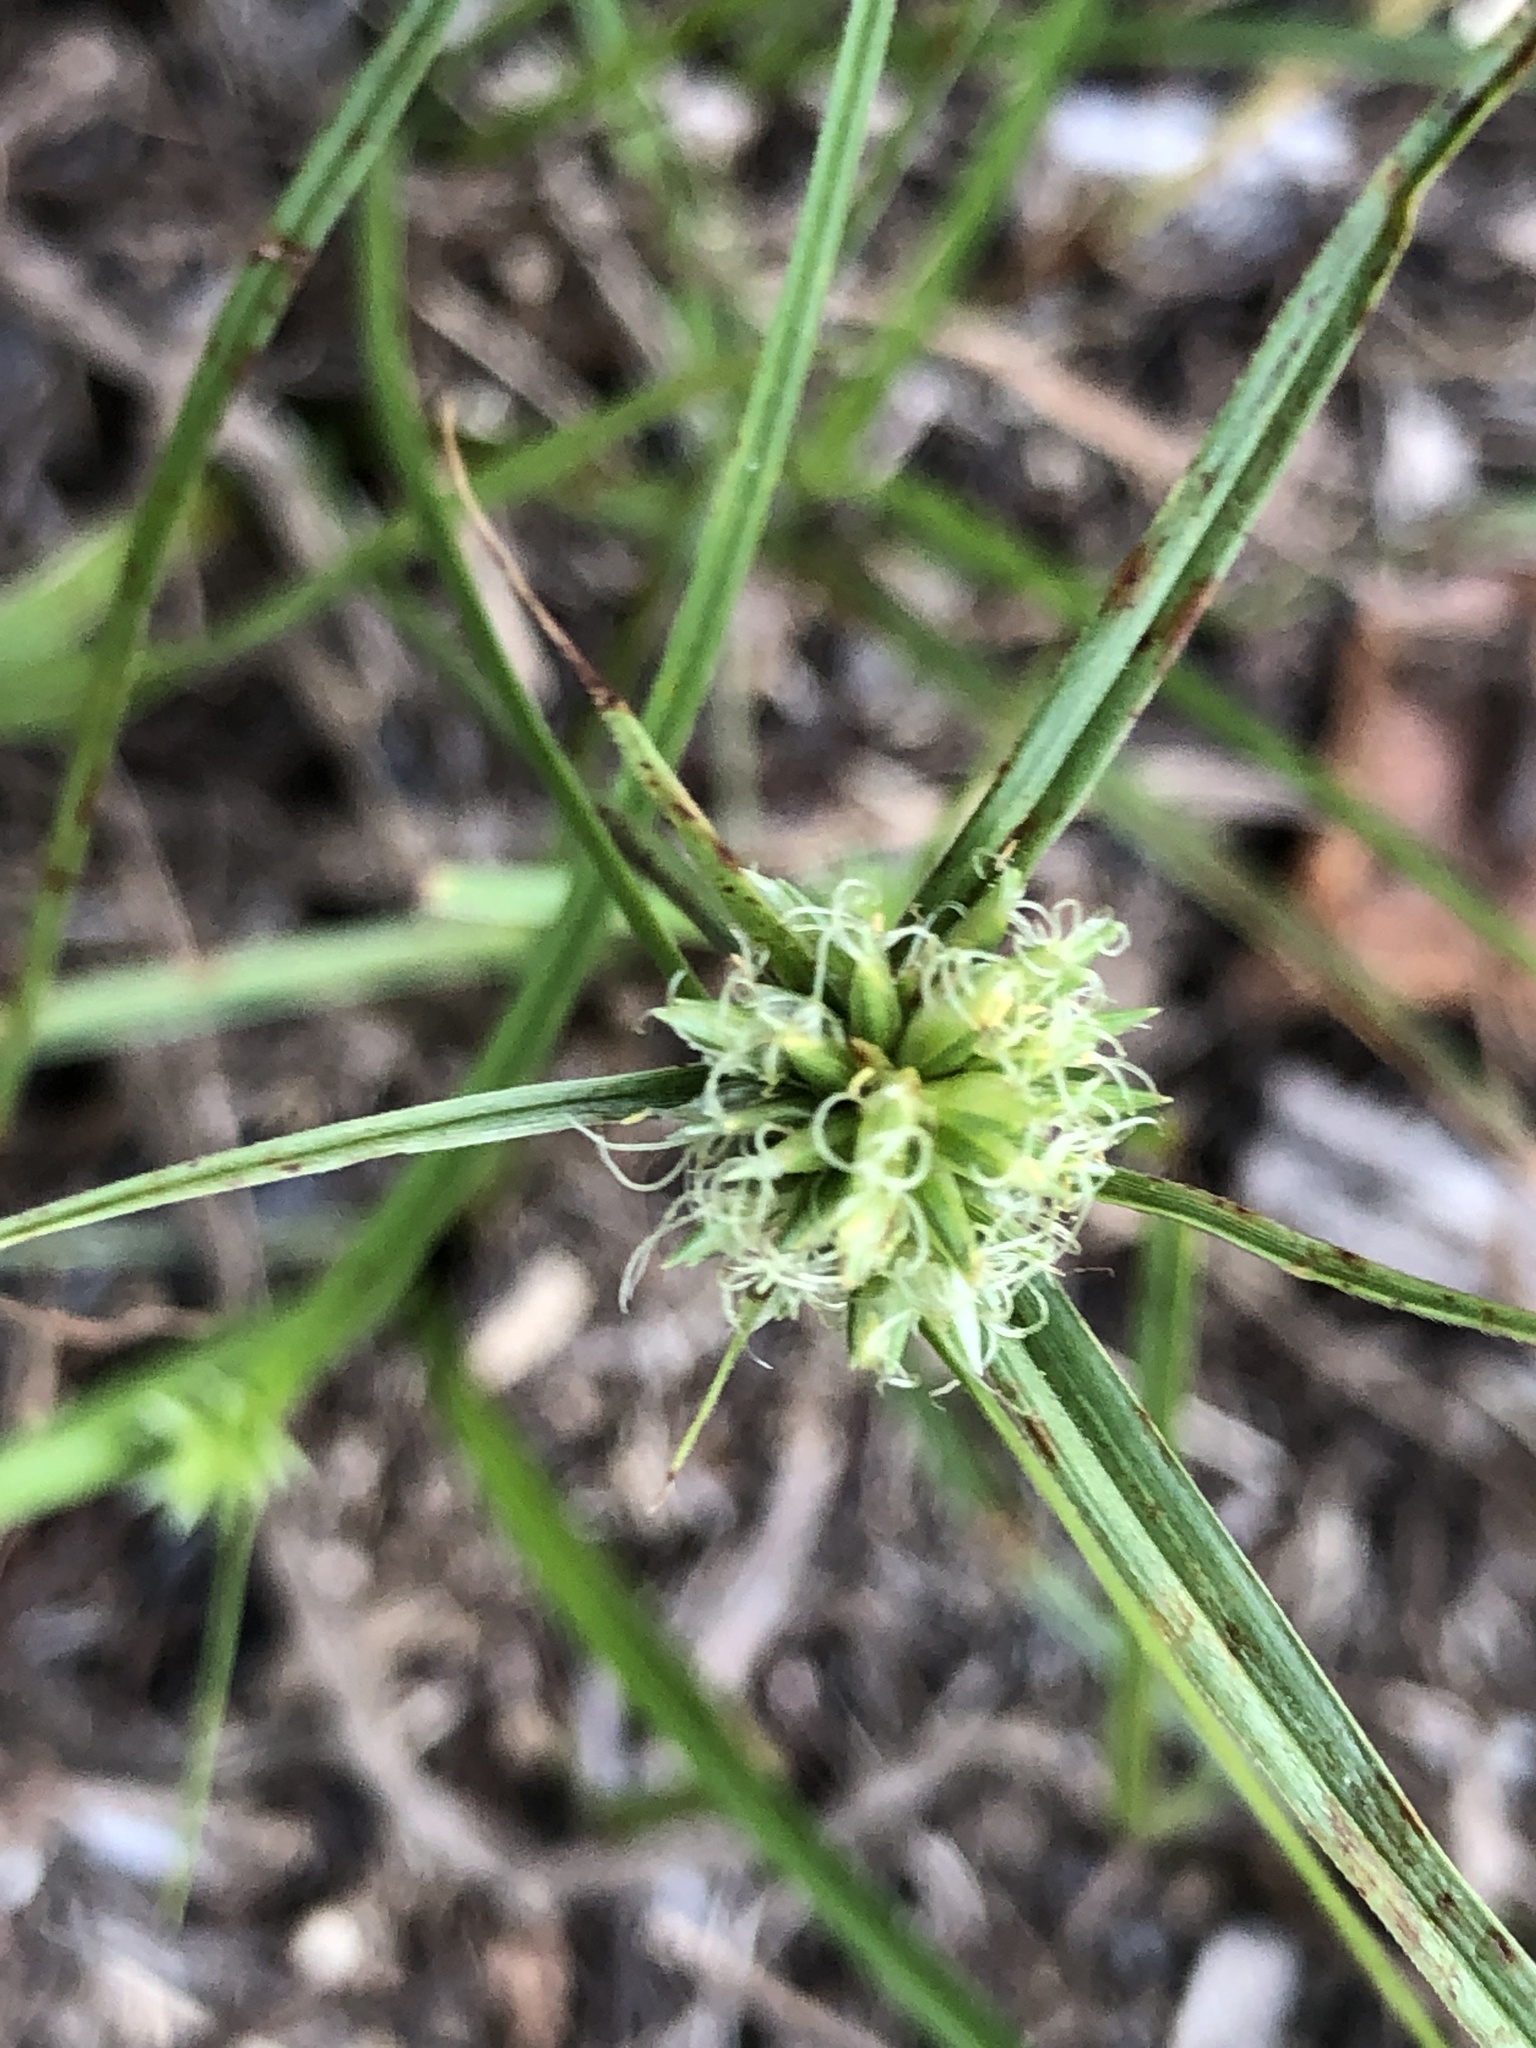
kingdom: Plantae
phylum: Tracheophyta
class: Liliopsida
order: Poales
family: Cyperaceae
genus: Cyperus
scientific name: Cyperus lupulinus
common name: Great plains flatsedge
